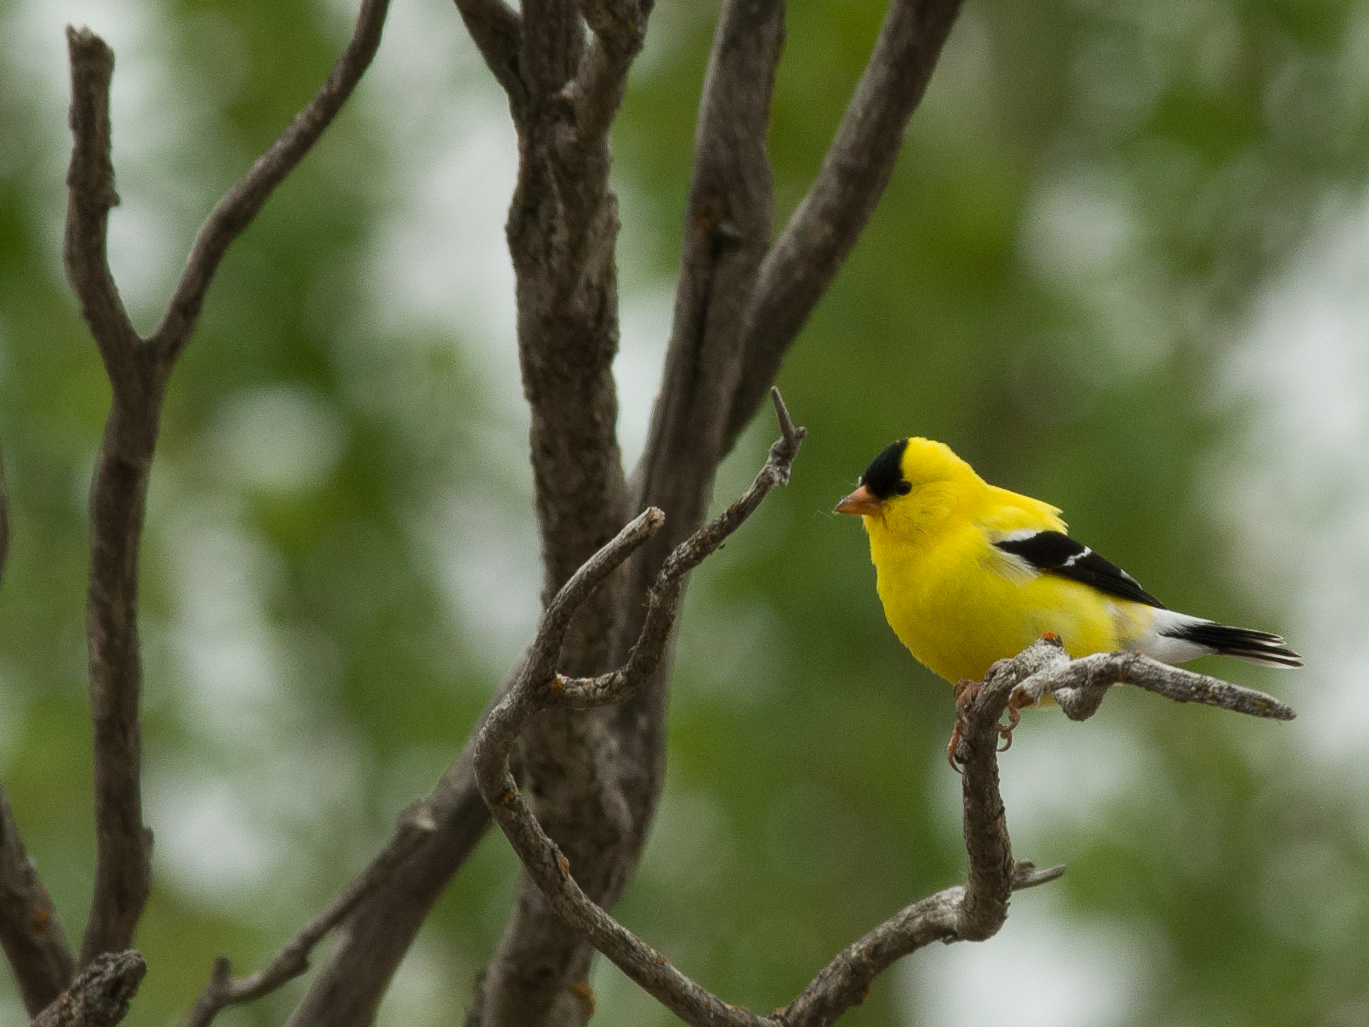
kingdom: Animalia
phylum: Chordata
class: Aves
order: Passeriformes
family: Fringillidae
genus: Spinus
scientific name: Spinus tristis
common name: American goldfinch
